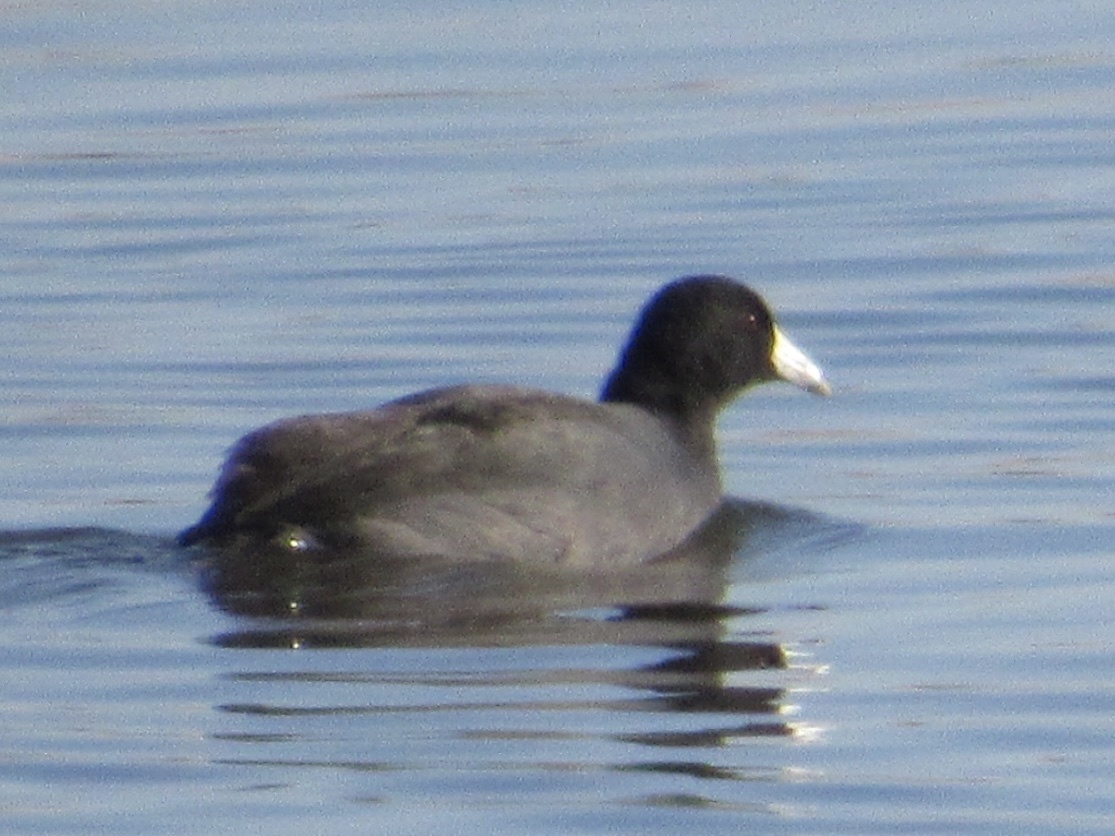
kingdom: Animalia
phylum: Chordata
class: Aves
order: Gruiformes
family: Rallidae
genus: Fulica
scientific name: Fulica americana
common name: American coot
